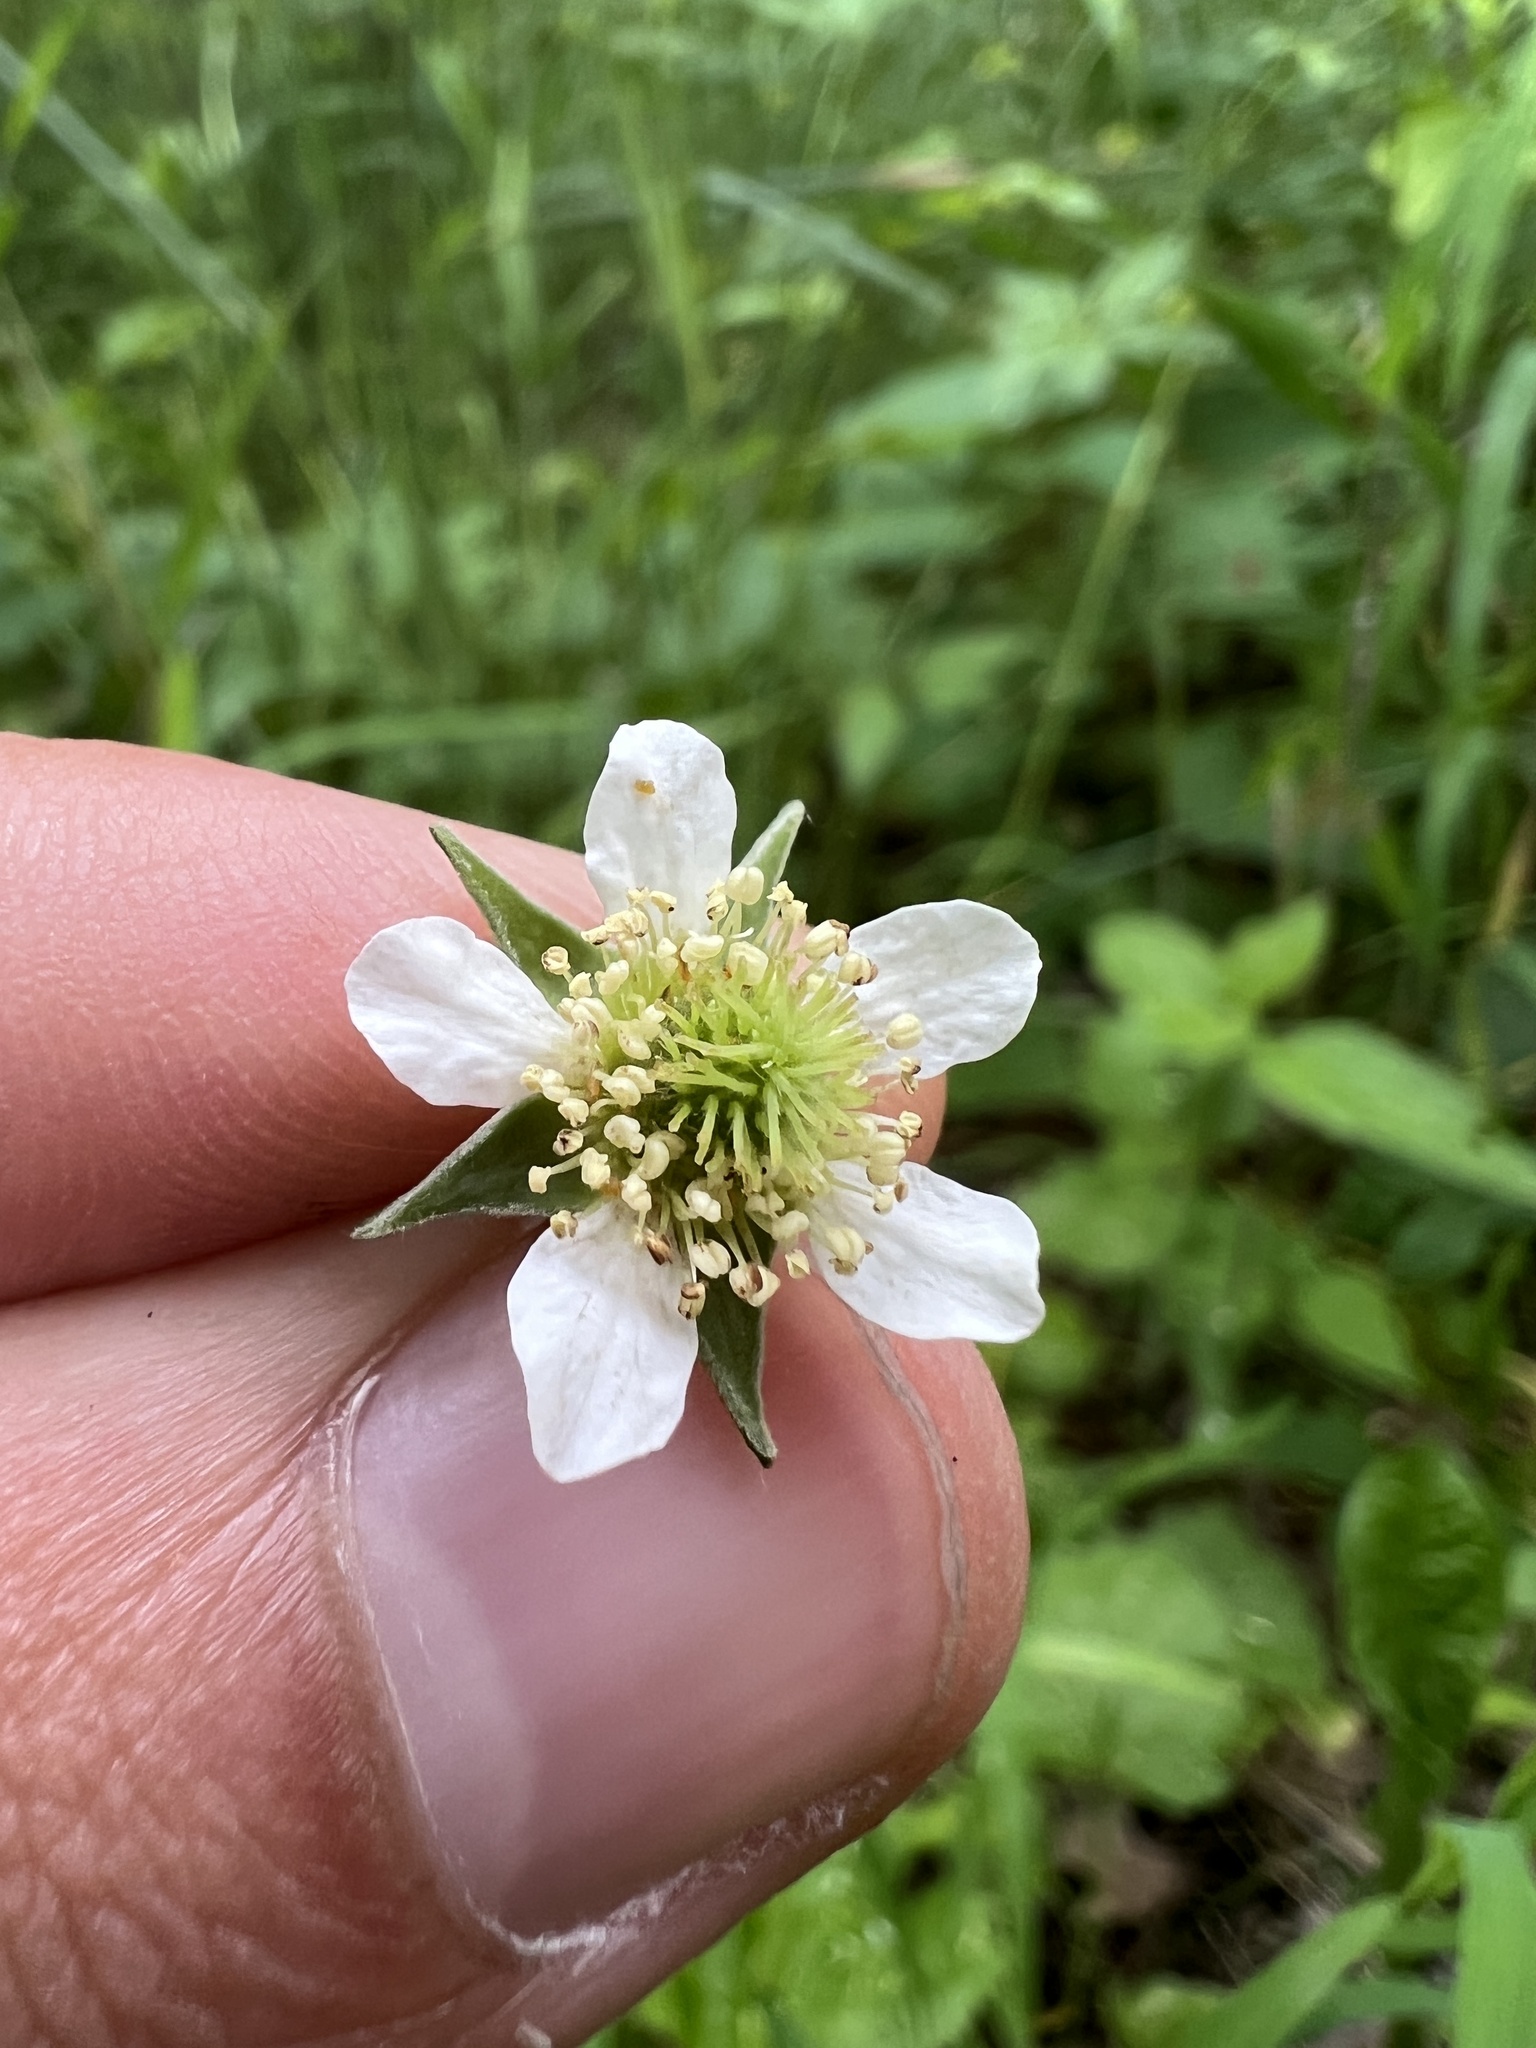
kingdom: Plantae
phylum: Tracheophyta
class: Magnoliopsida
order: Rosales
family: Rosaceae
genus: Geum
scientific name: Geum canadense
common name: White avens
